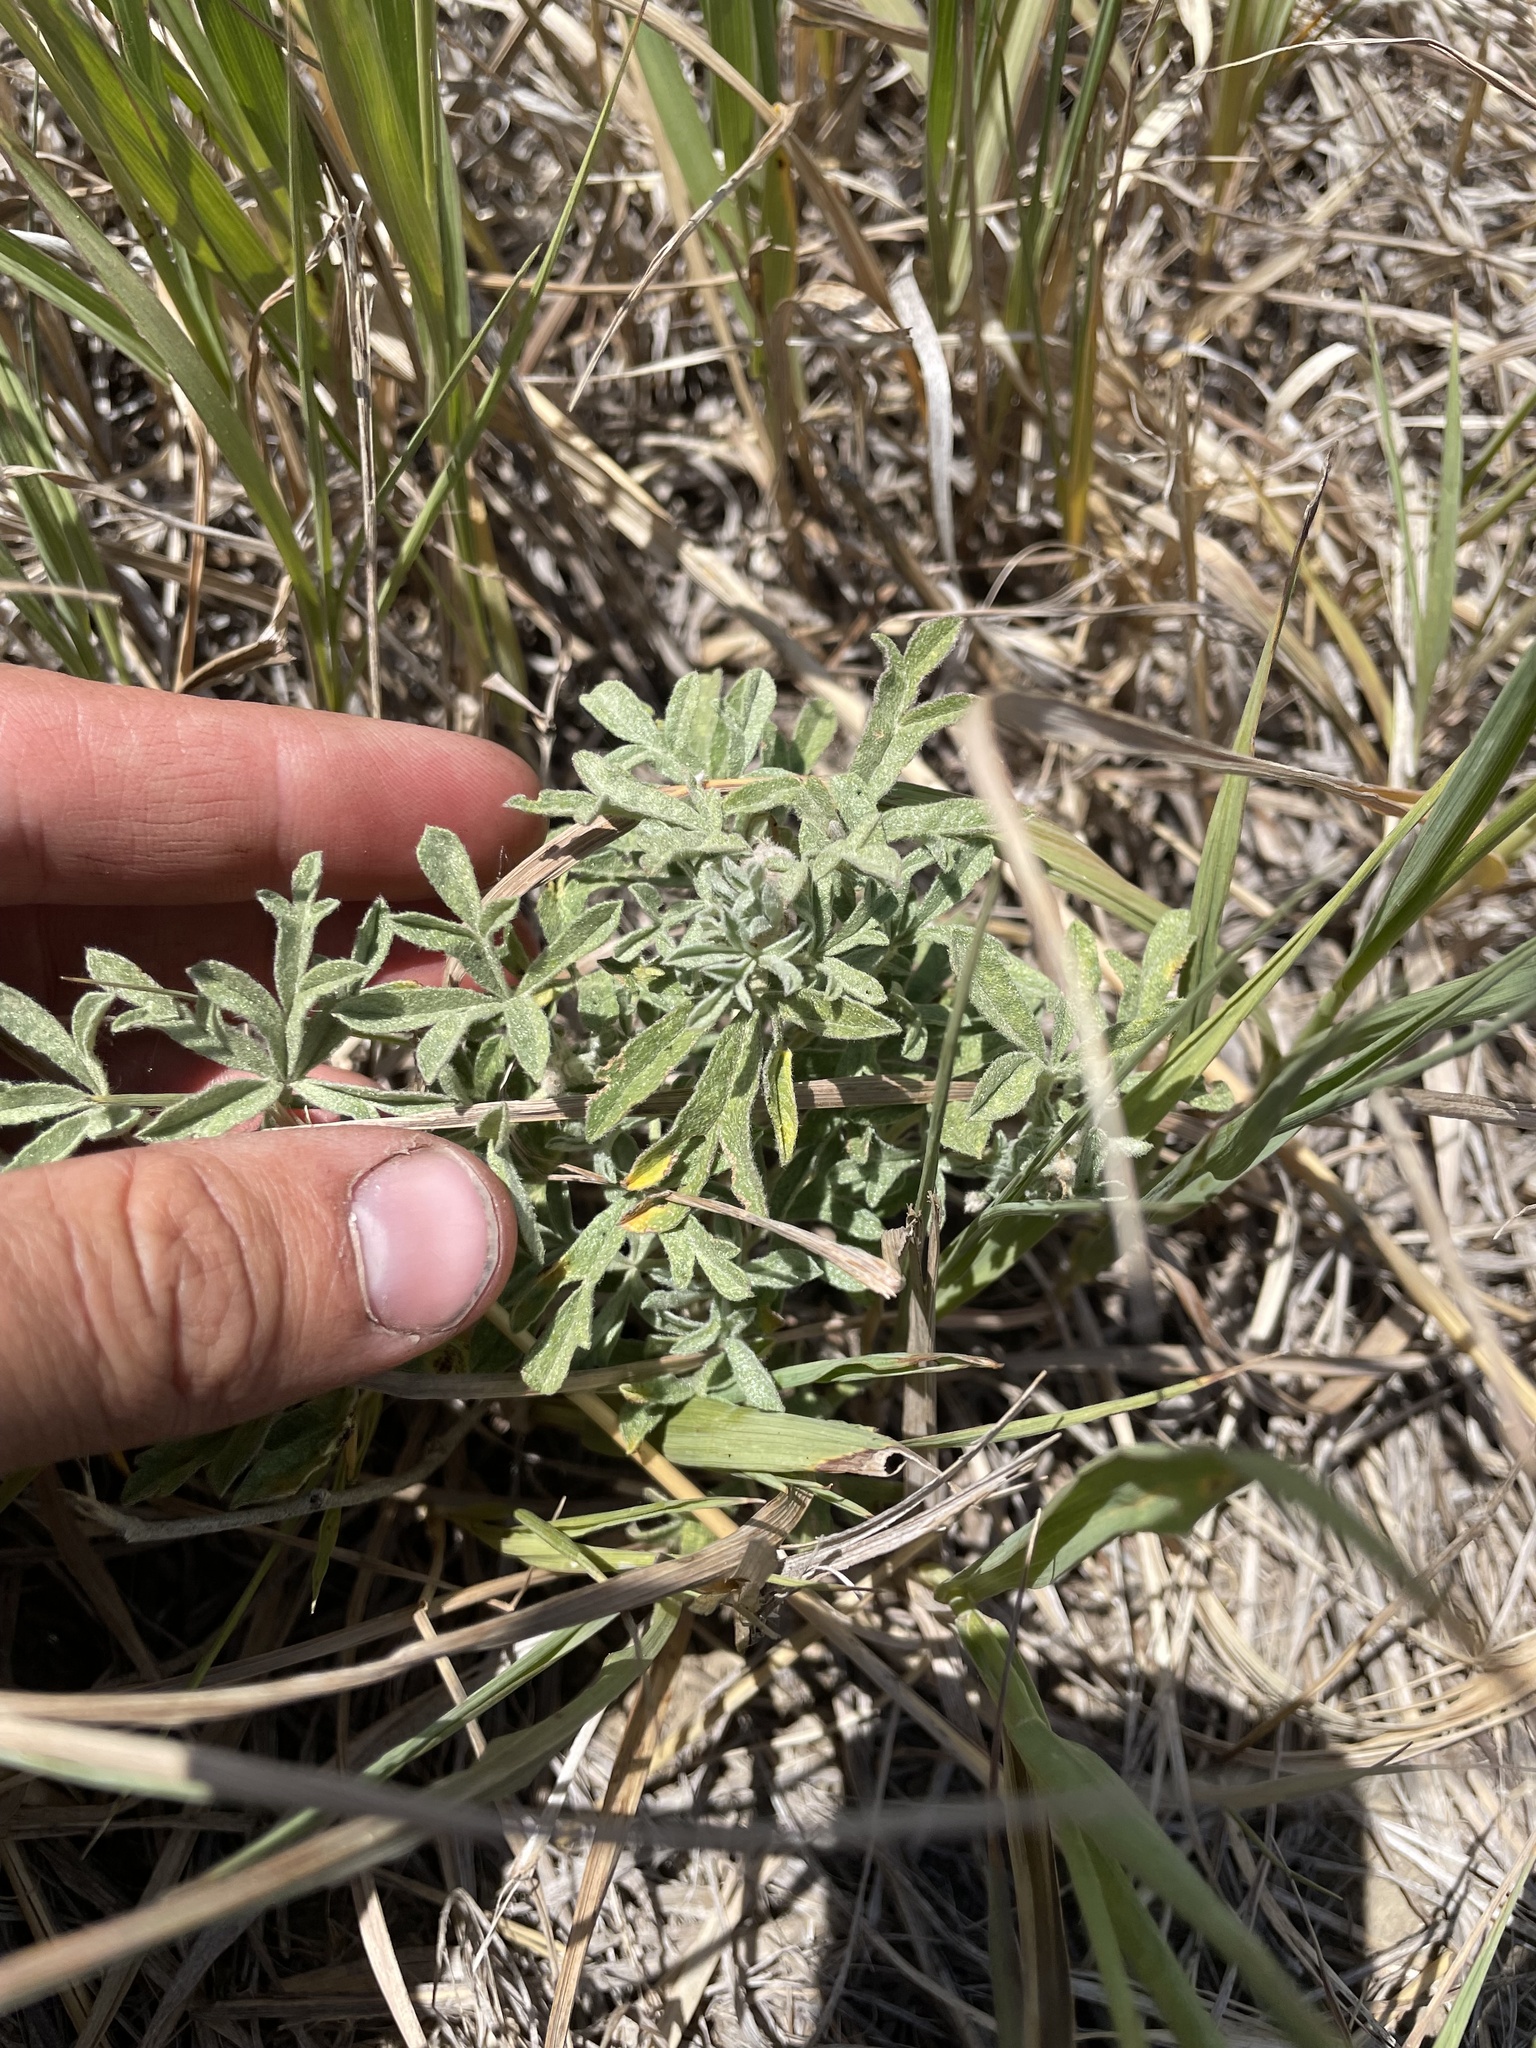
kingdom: Plantae
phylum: Tracheophyta
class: Magnoliopsida
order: Malvales
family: Malvaceae
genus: Sphaeralcea
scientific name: Sphaeralcea coccinea
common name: Moss-rose
